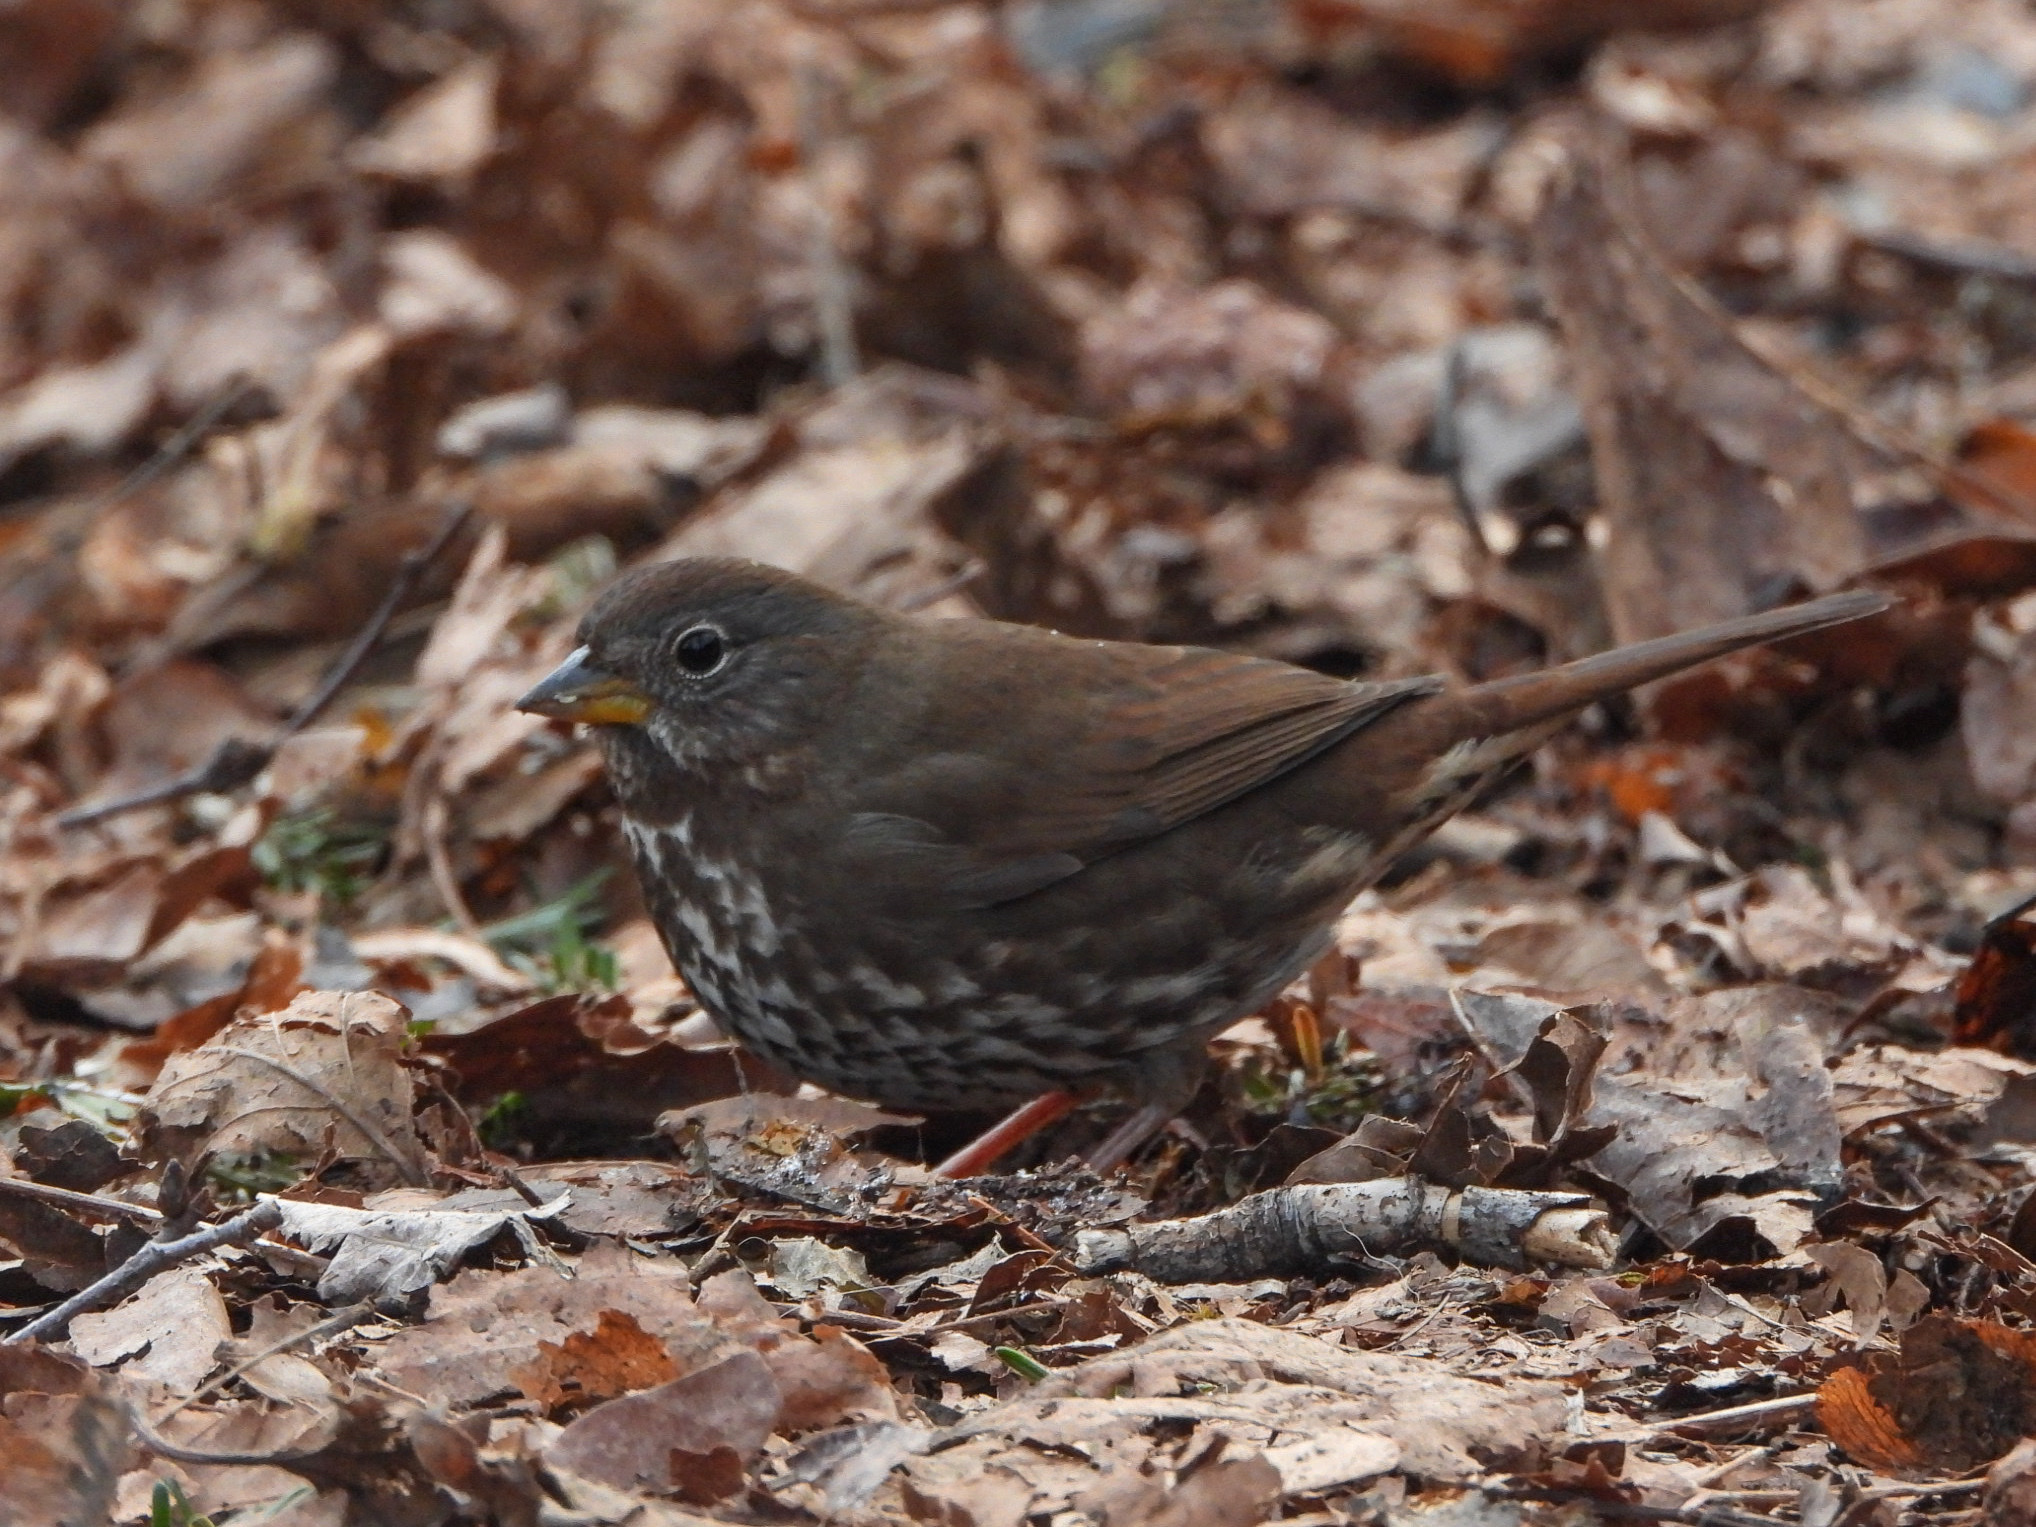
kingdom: Animalia
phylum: Chordata
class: Aves
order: Passeriformes
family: Passerellidae
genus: Passerella
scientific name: Passerella iliaca
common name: Fox sparrow
